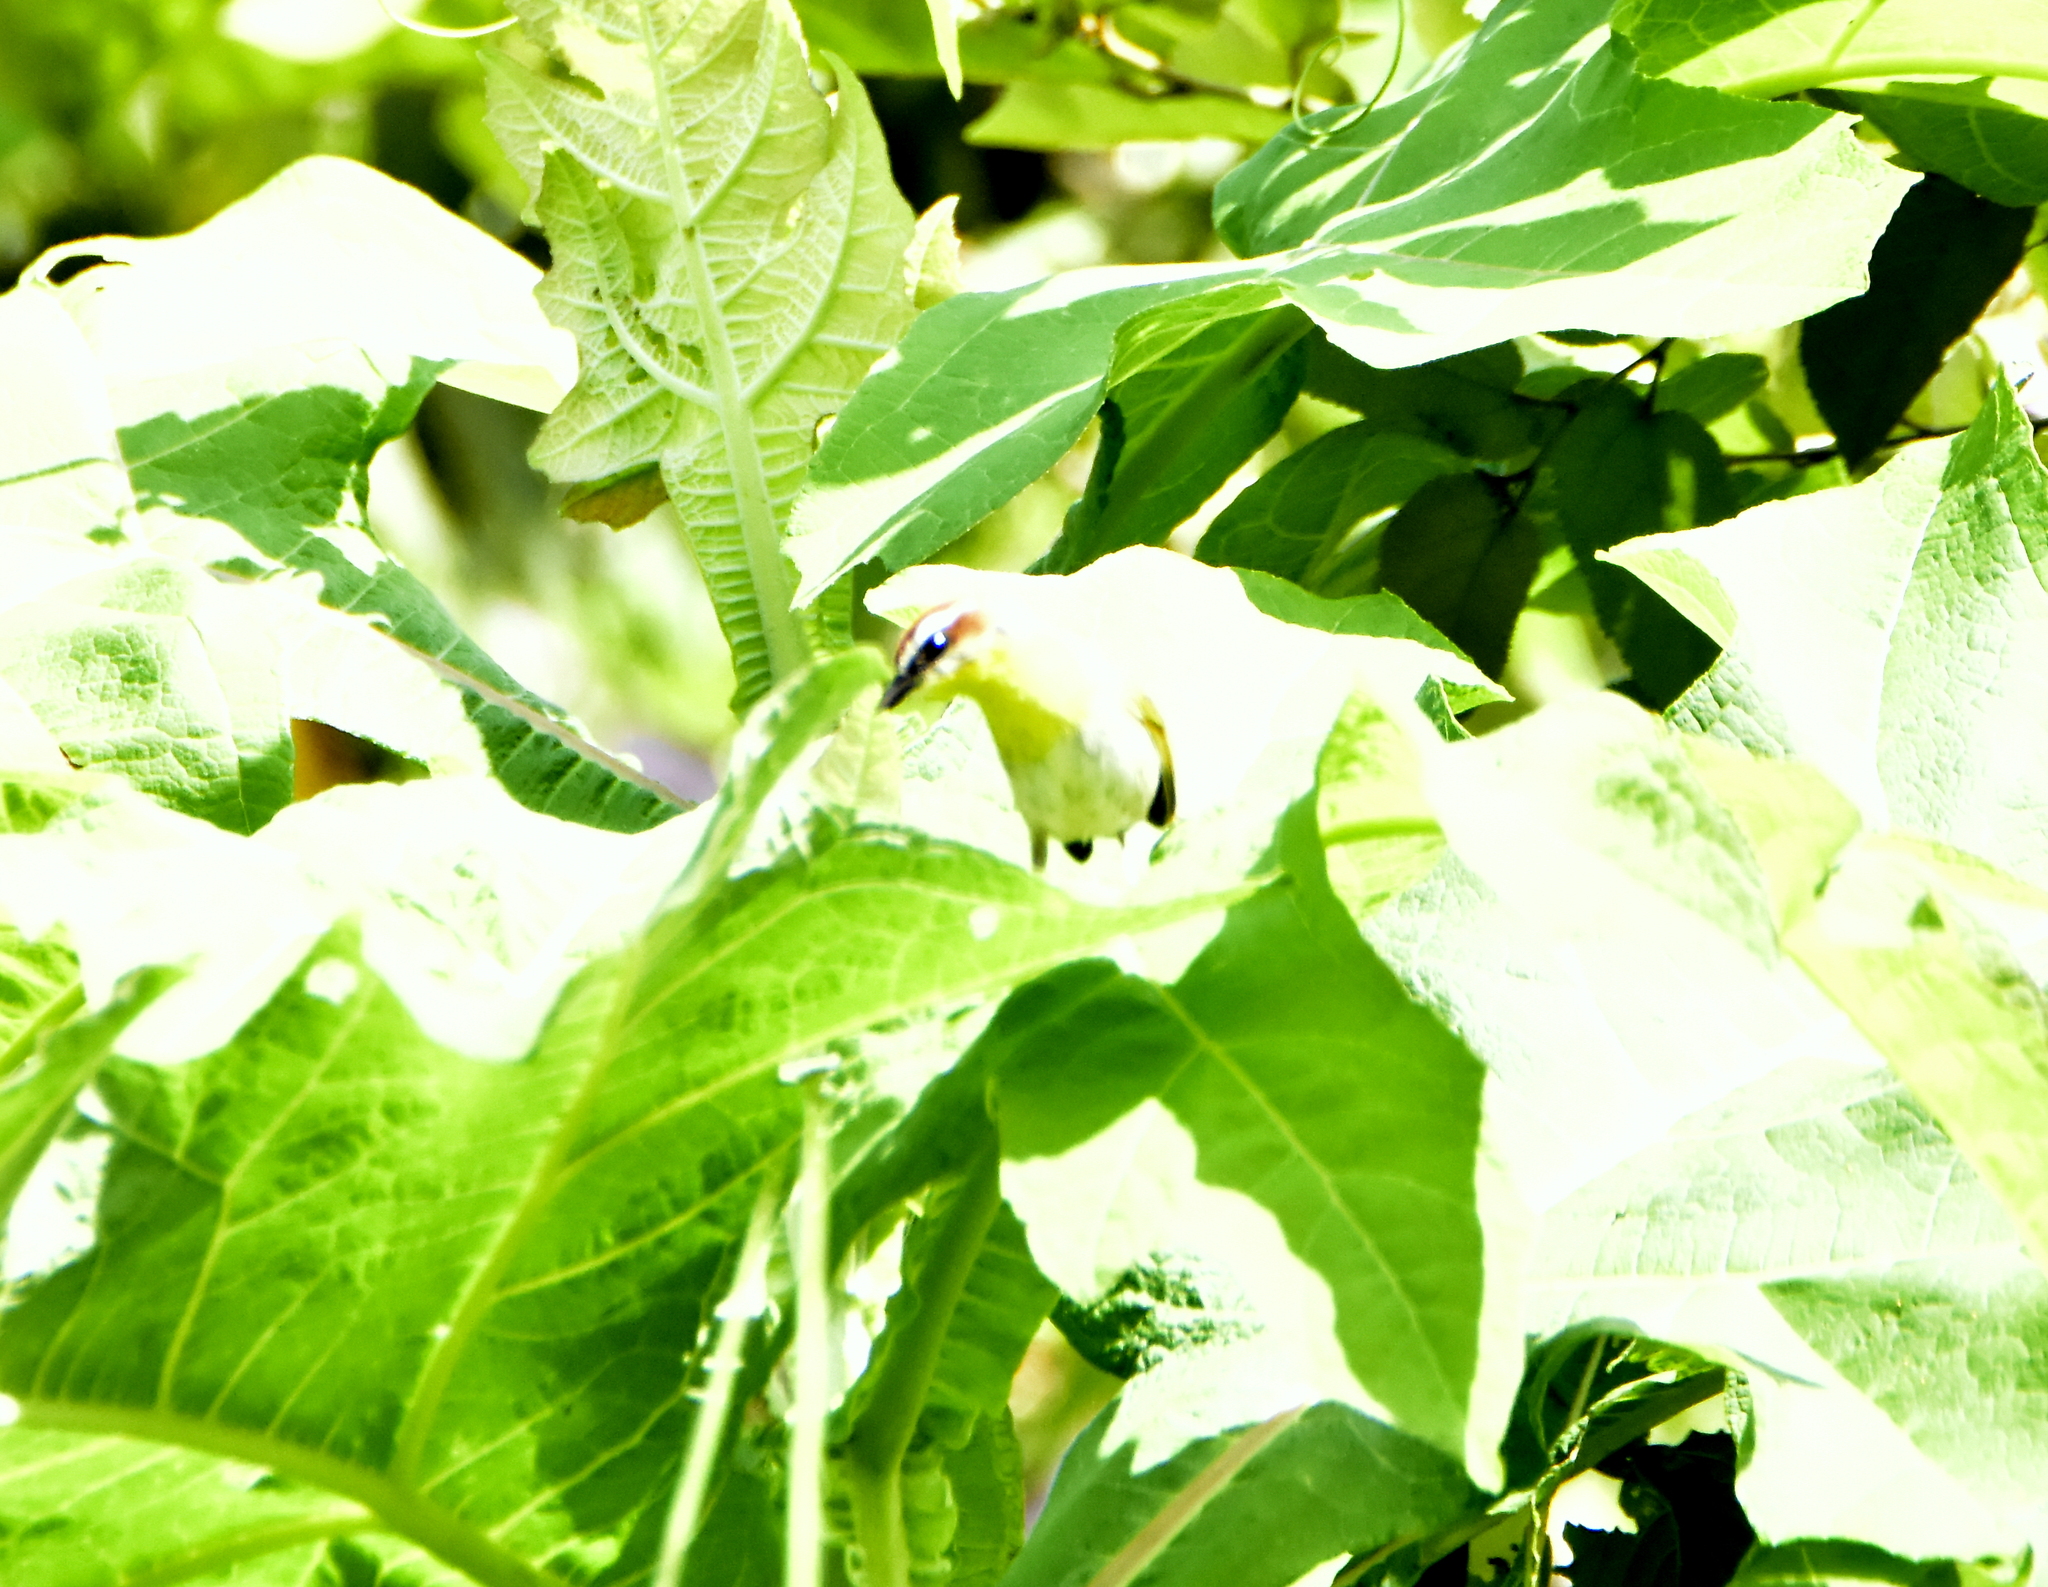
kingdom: Animalia
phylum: Chordata
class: Aves
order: Passeriformes
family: Parulidae
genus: Basileuterus
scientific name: Basileuterus rufifrons
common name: Rufous-capped warbler
